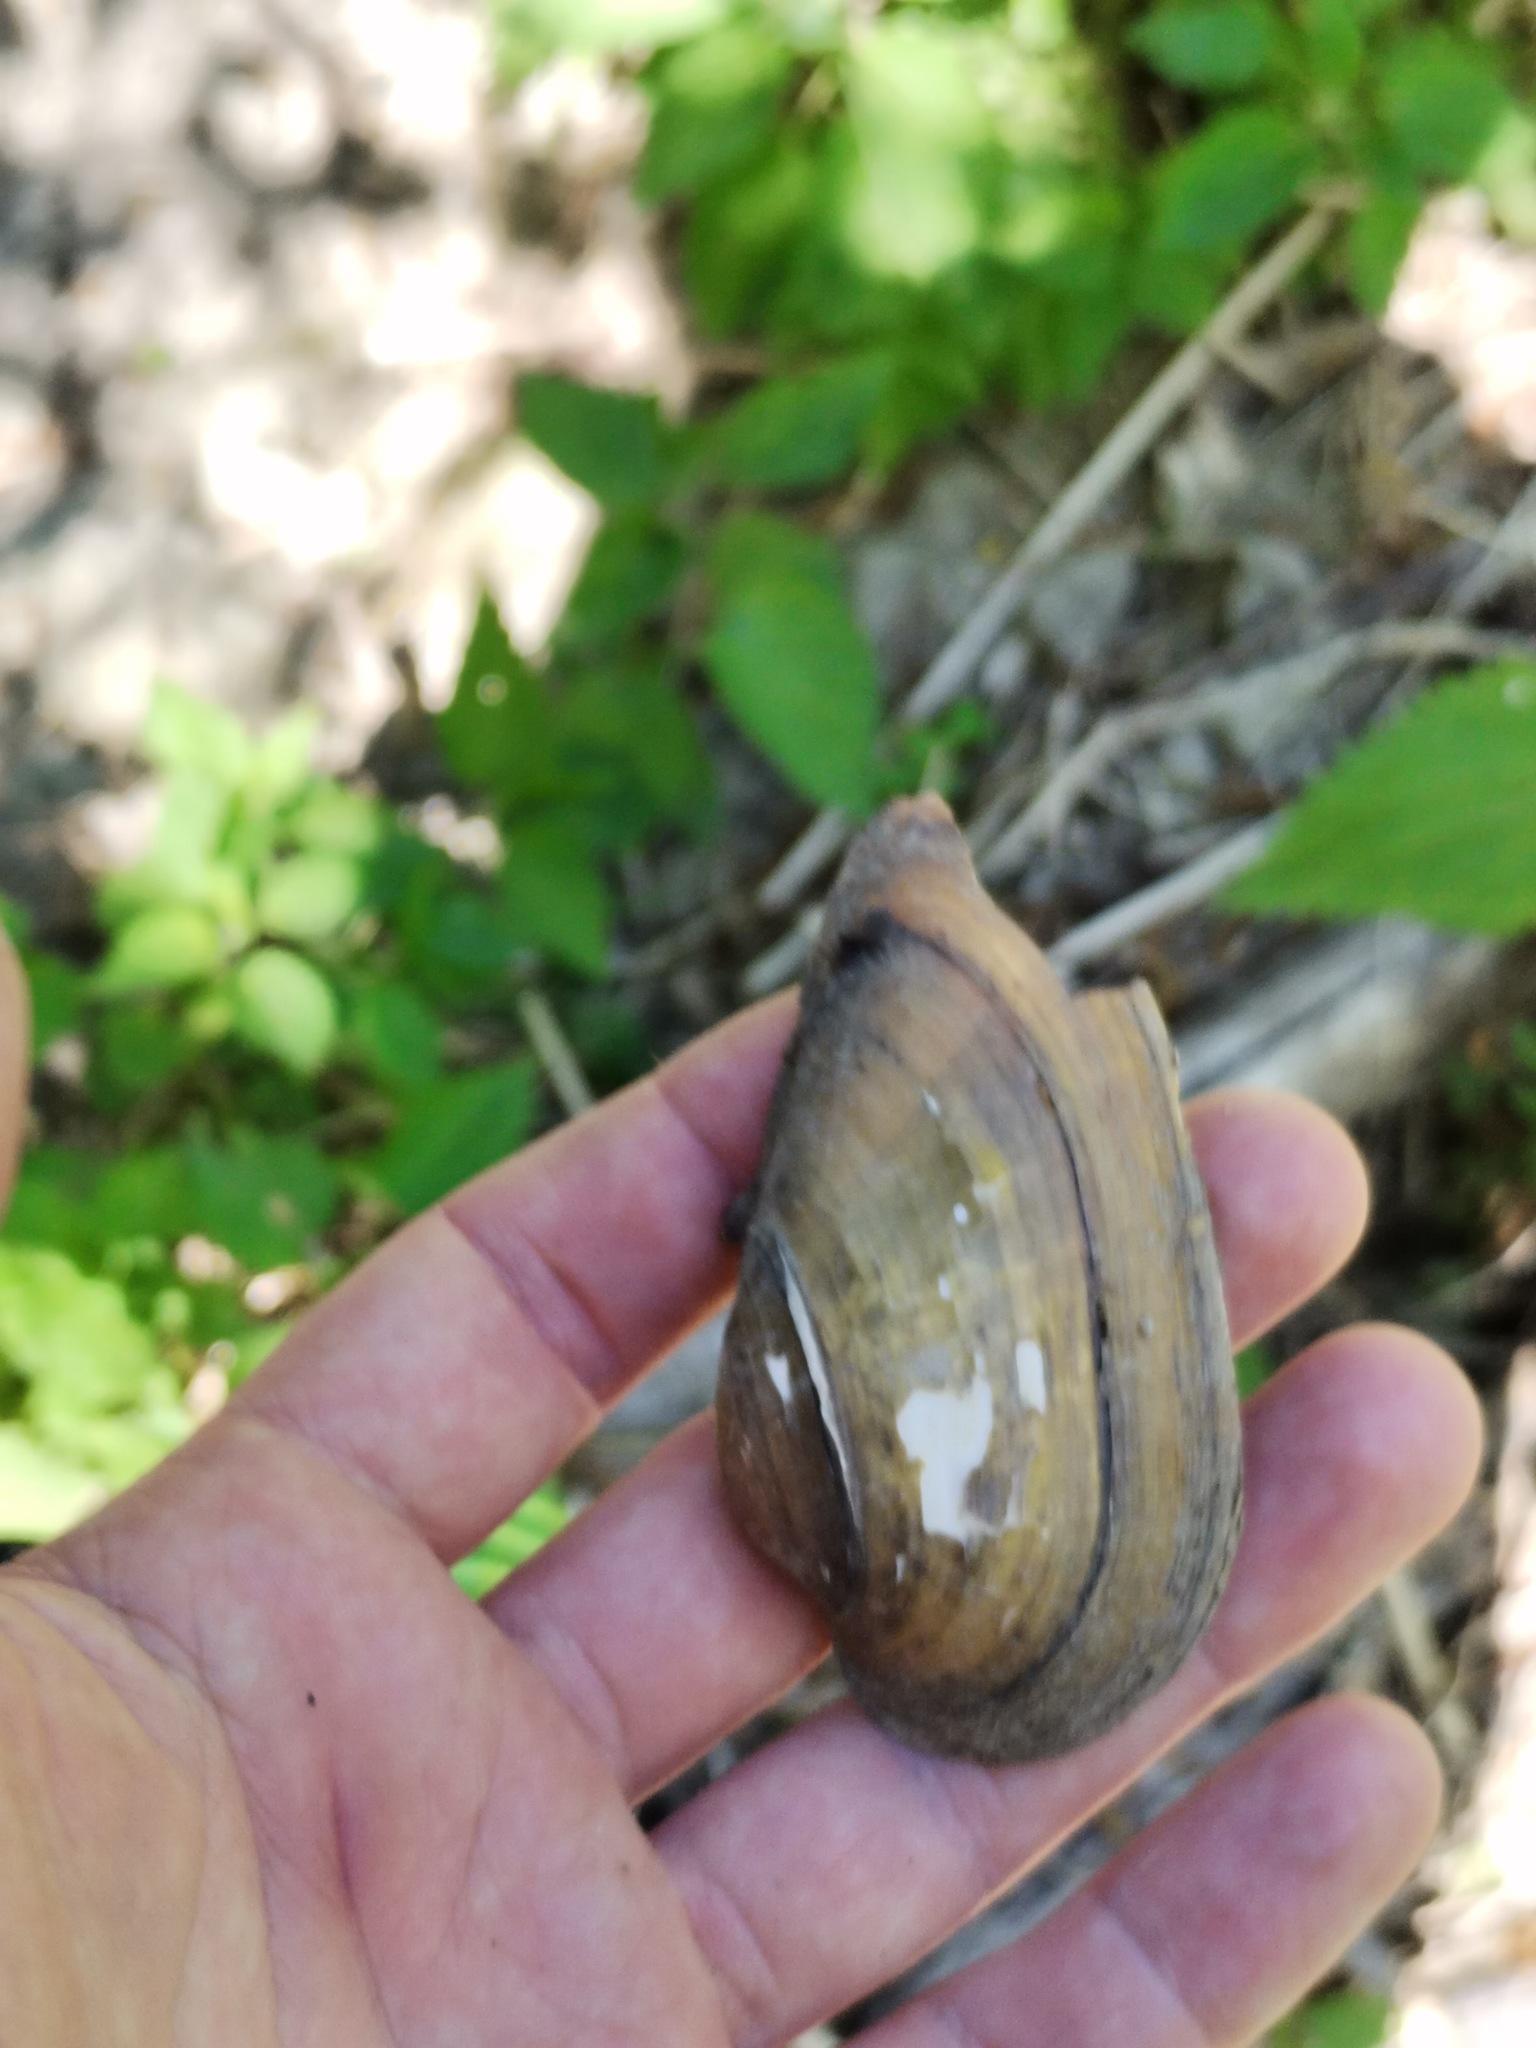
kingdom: Animalia
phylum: Mollusca
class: Bivalvia
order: Unionida
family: Unionidae
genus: Unio
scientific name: Unio tumidus
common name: Swollen river mussel
